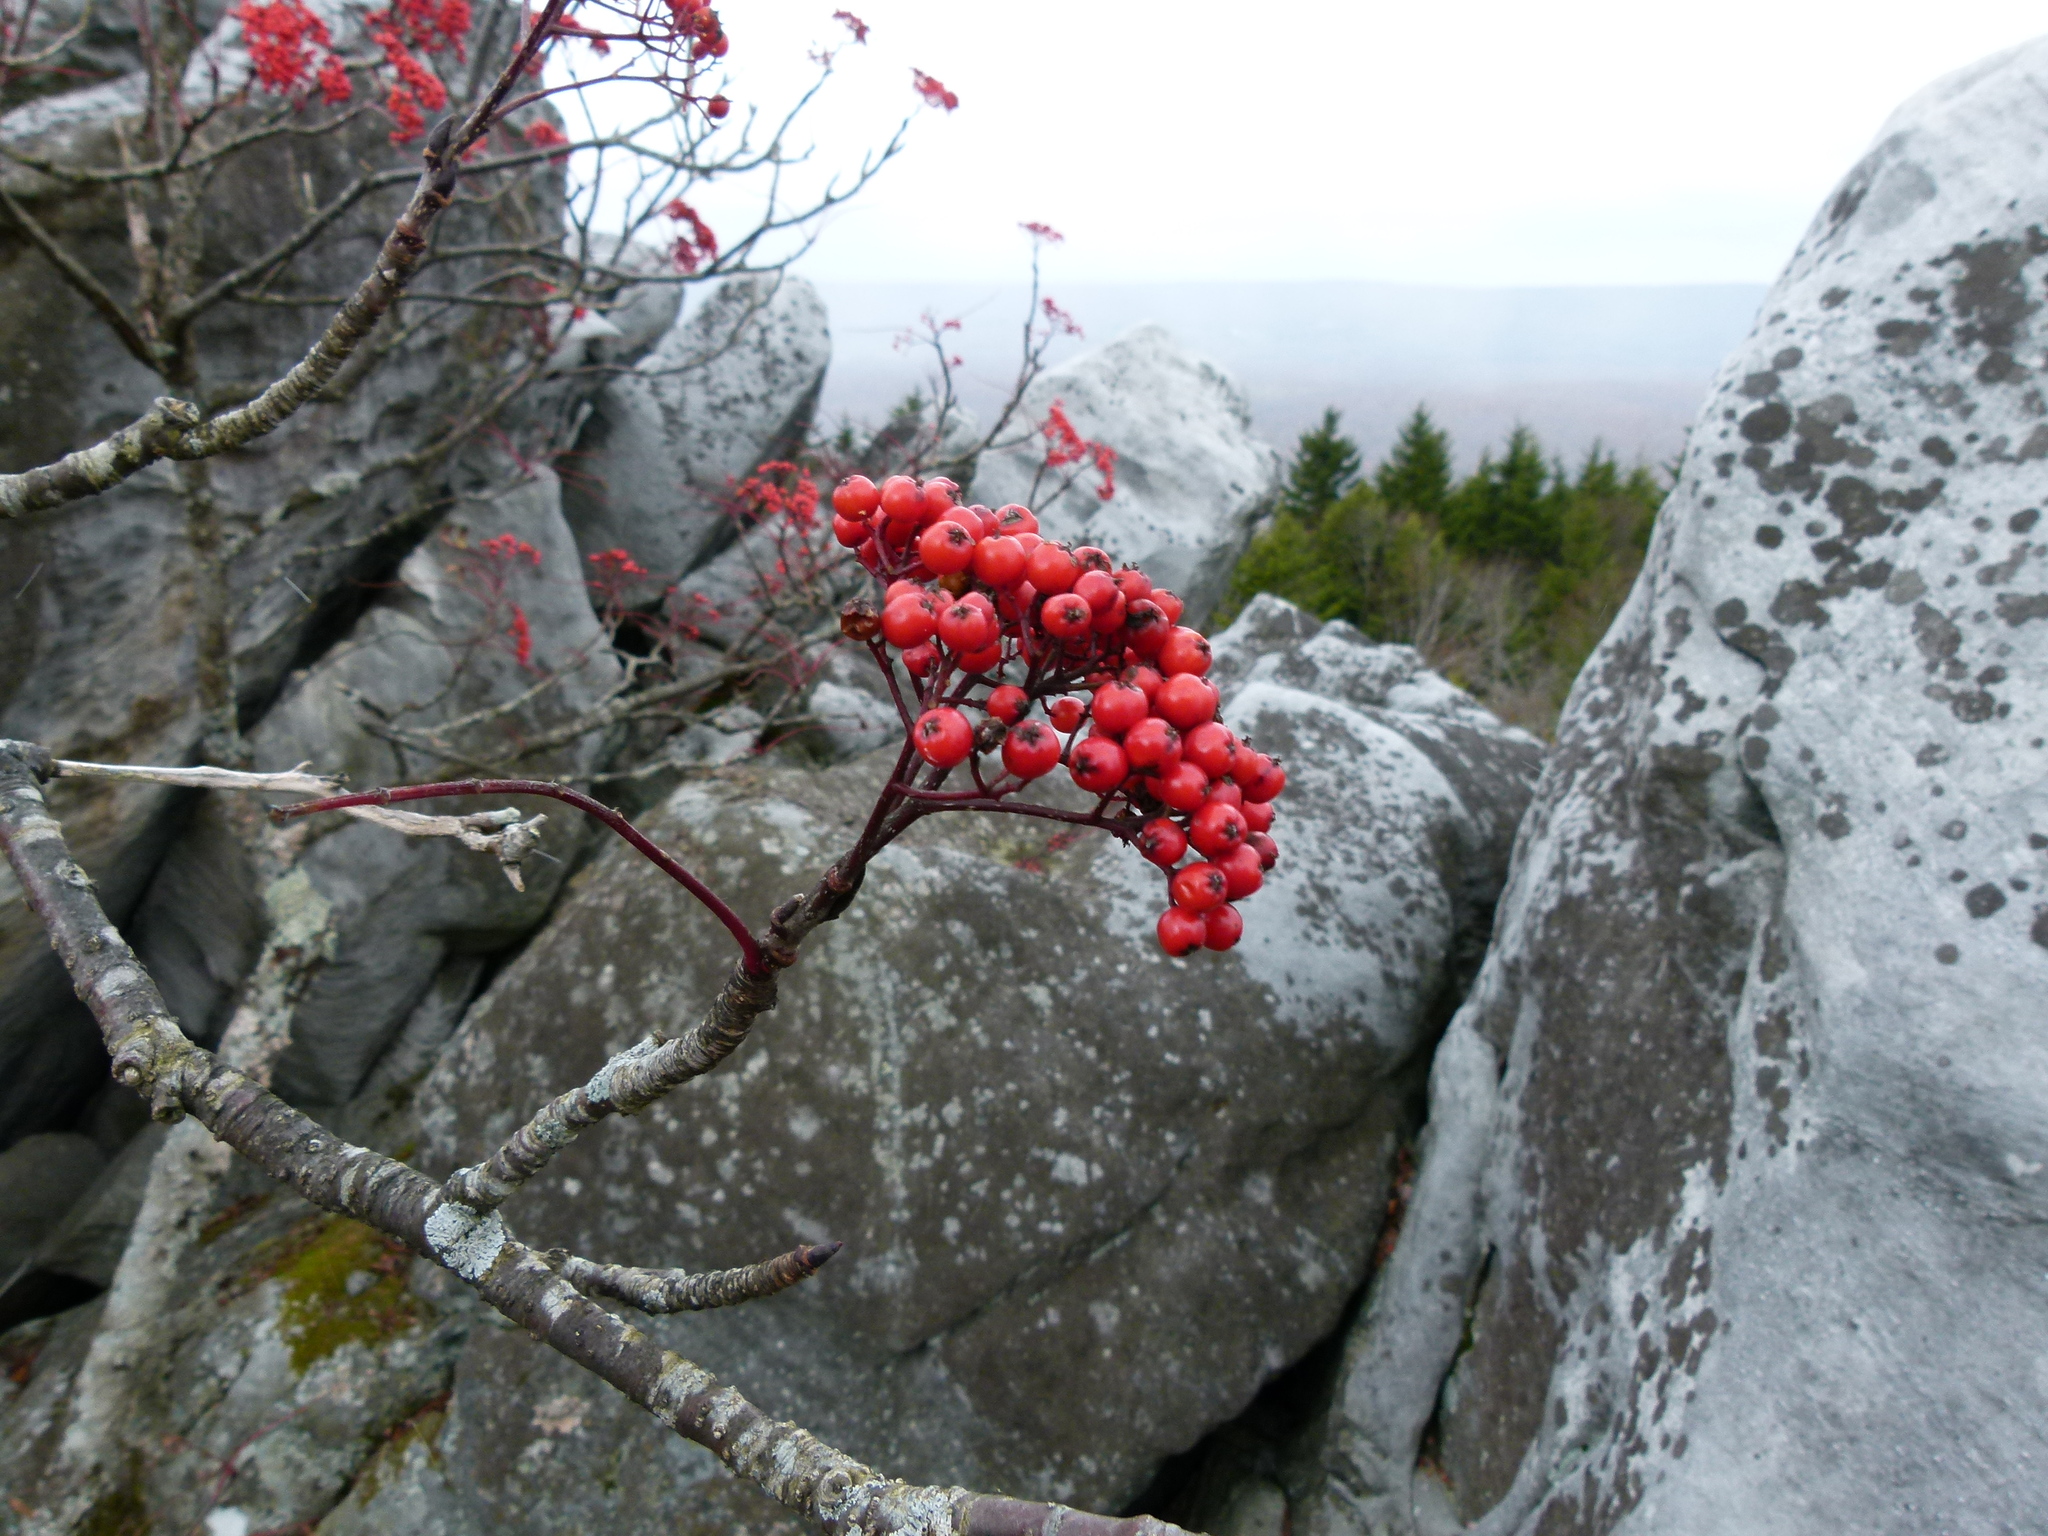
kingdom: Plantae
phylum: Tracheophyta
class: Magnoliopsida
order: Rosales
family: Rosaceae
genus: Sorbus
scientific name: Sorbus americana
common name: American mountain-ash
